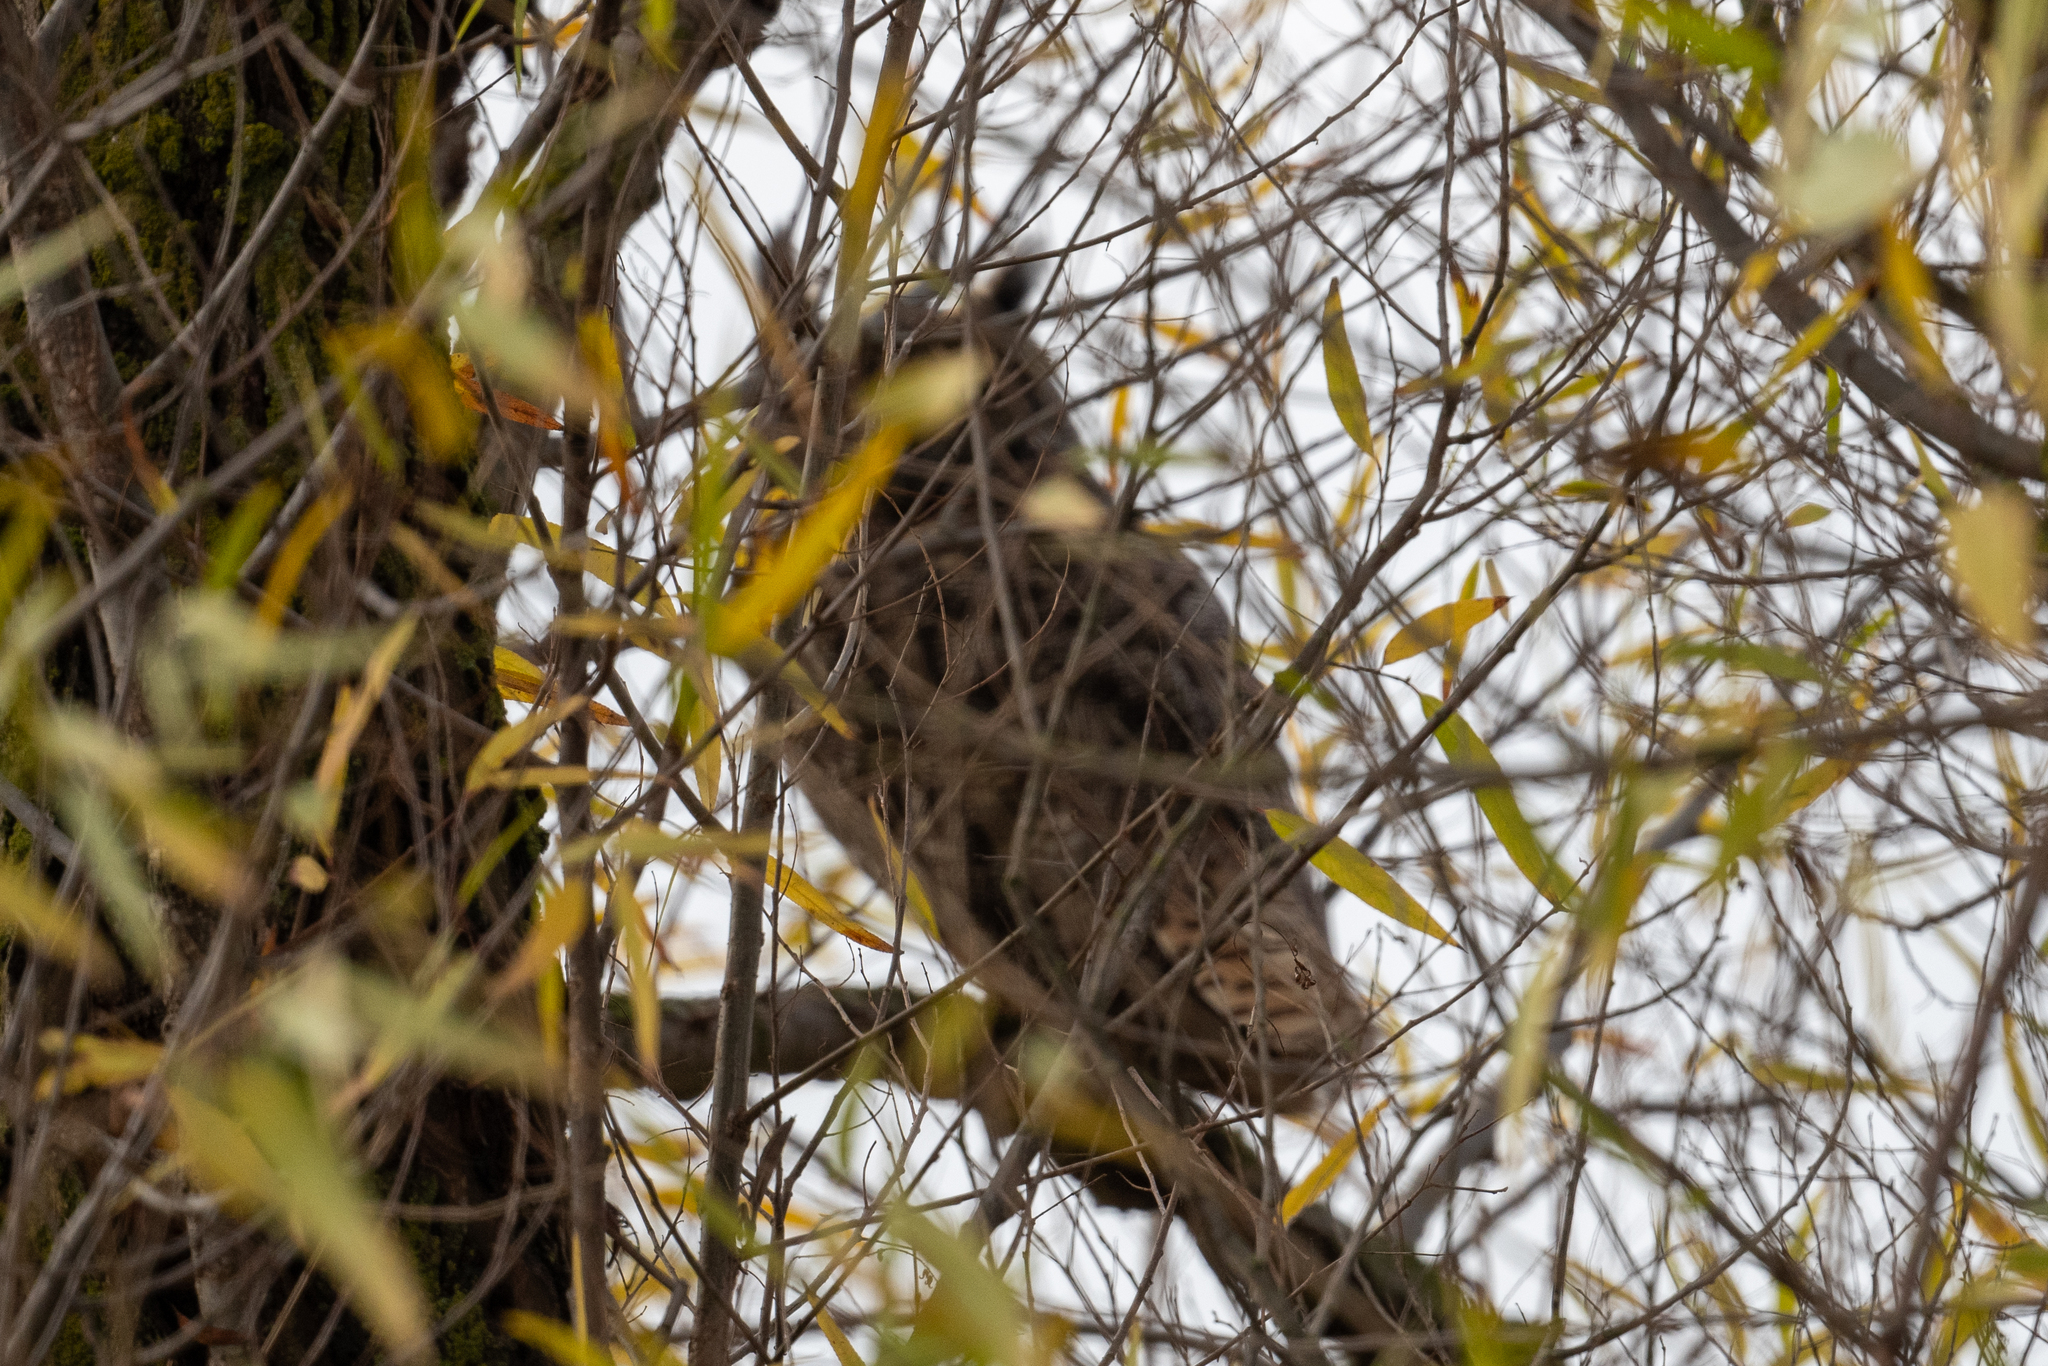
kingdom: Animalia
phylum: Chordata
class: Aves
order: Strigiformes
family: Strigidae
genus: Bubo
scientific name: Bubo virginianus
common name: Great horned owl
